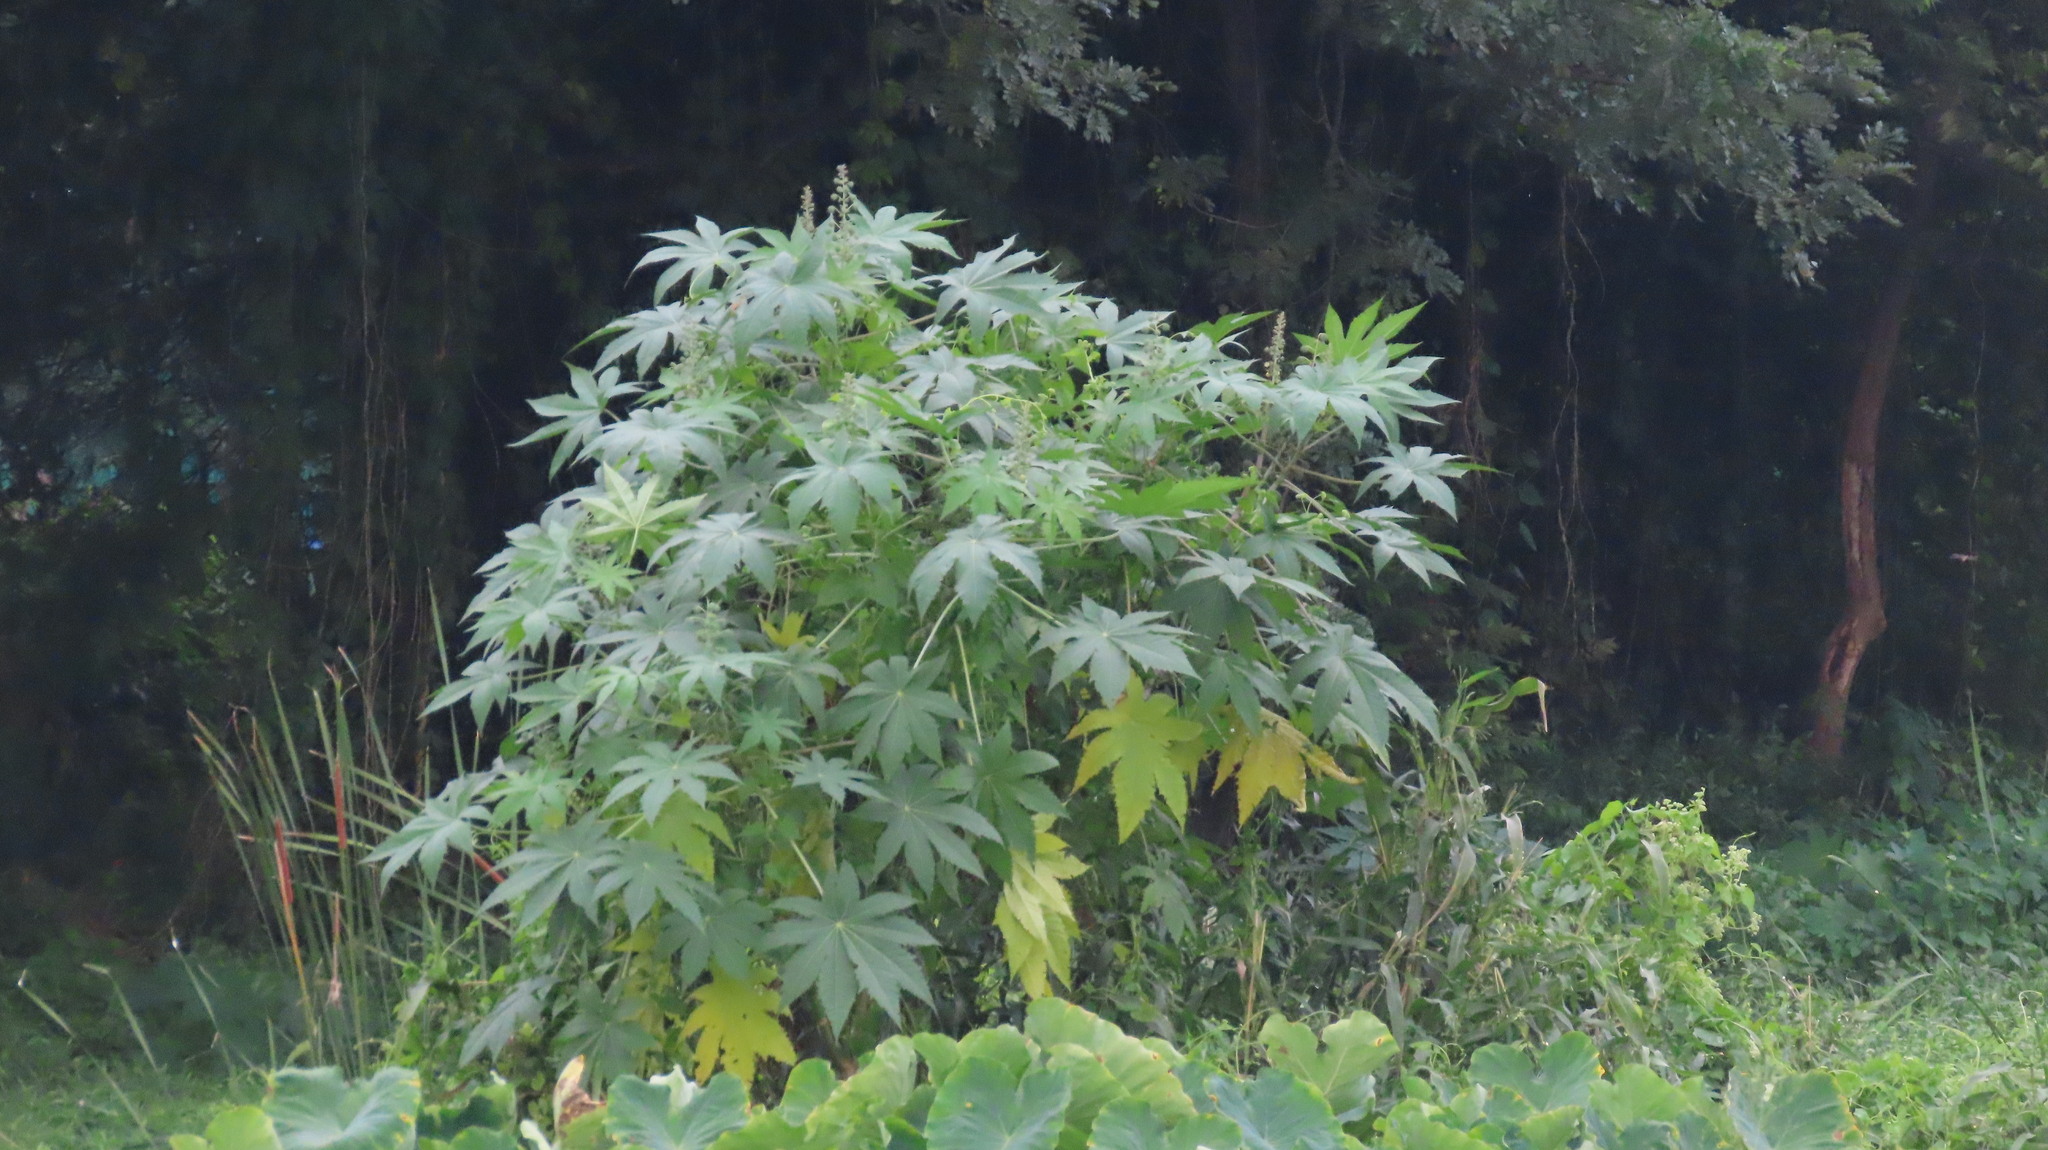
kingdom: Plantae
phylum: Tracheophyta
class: Magnoliopsida
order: Malpighiales
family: Euphorbiaceae
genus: Ricinus
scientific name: Ricinus communis
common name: Castor-oil-plant
